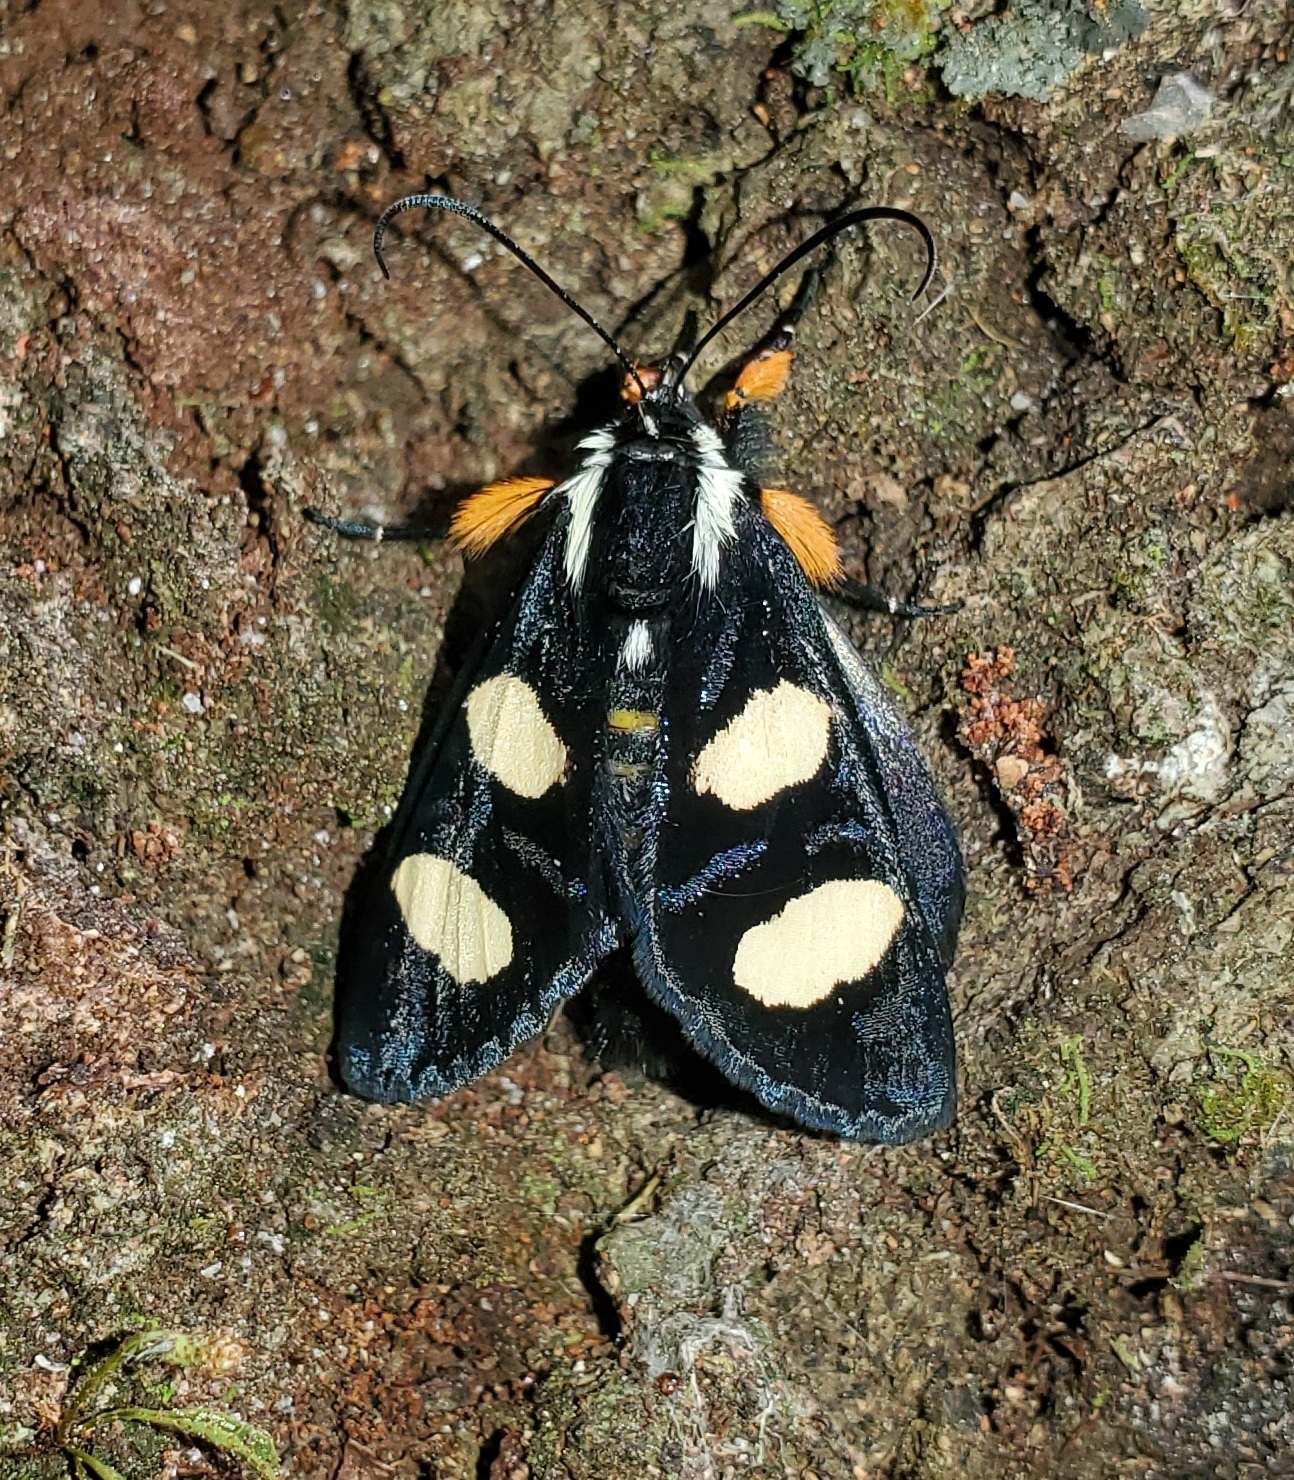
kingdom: Animalia
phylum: Arthropoda
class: Insecta
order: Lepidoptera
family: Noctuidae
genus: Alypia
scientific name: Alypia wittfeldii
